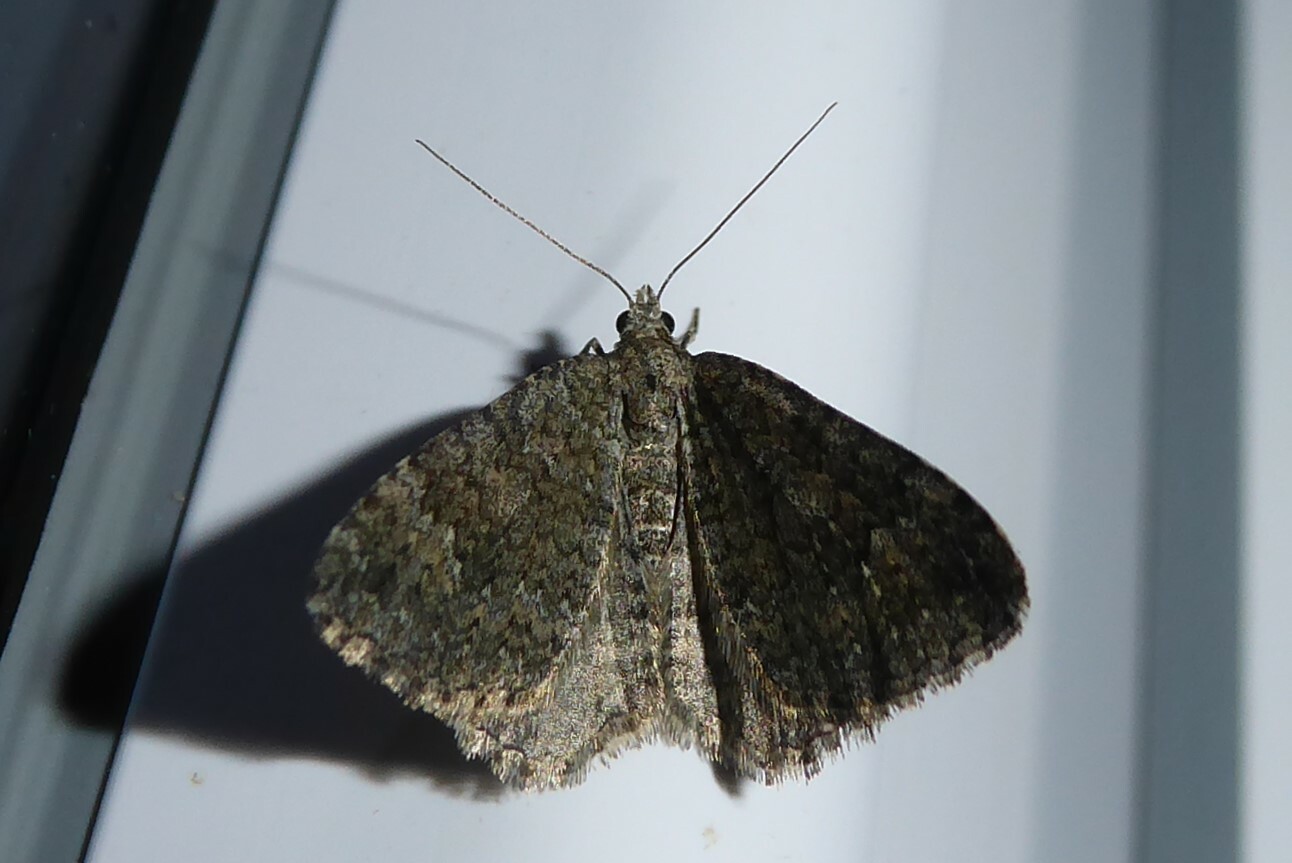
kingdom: Animalia
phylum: Arthropoda
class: Insecta
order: Lepidoptera
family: Geometridae
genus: Helastia
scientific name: Helastia corcularia
